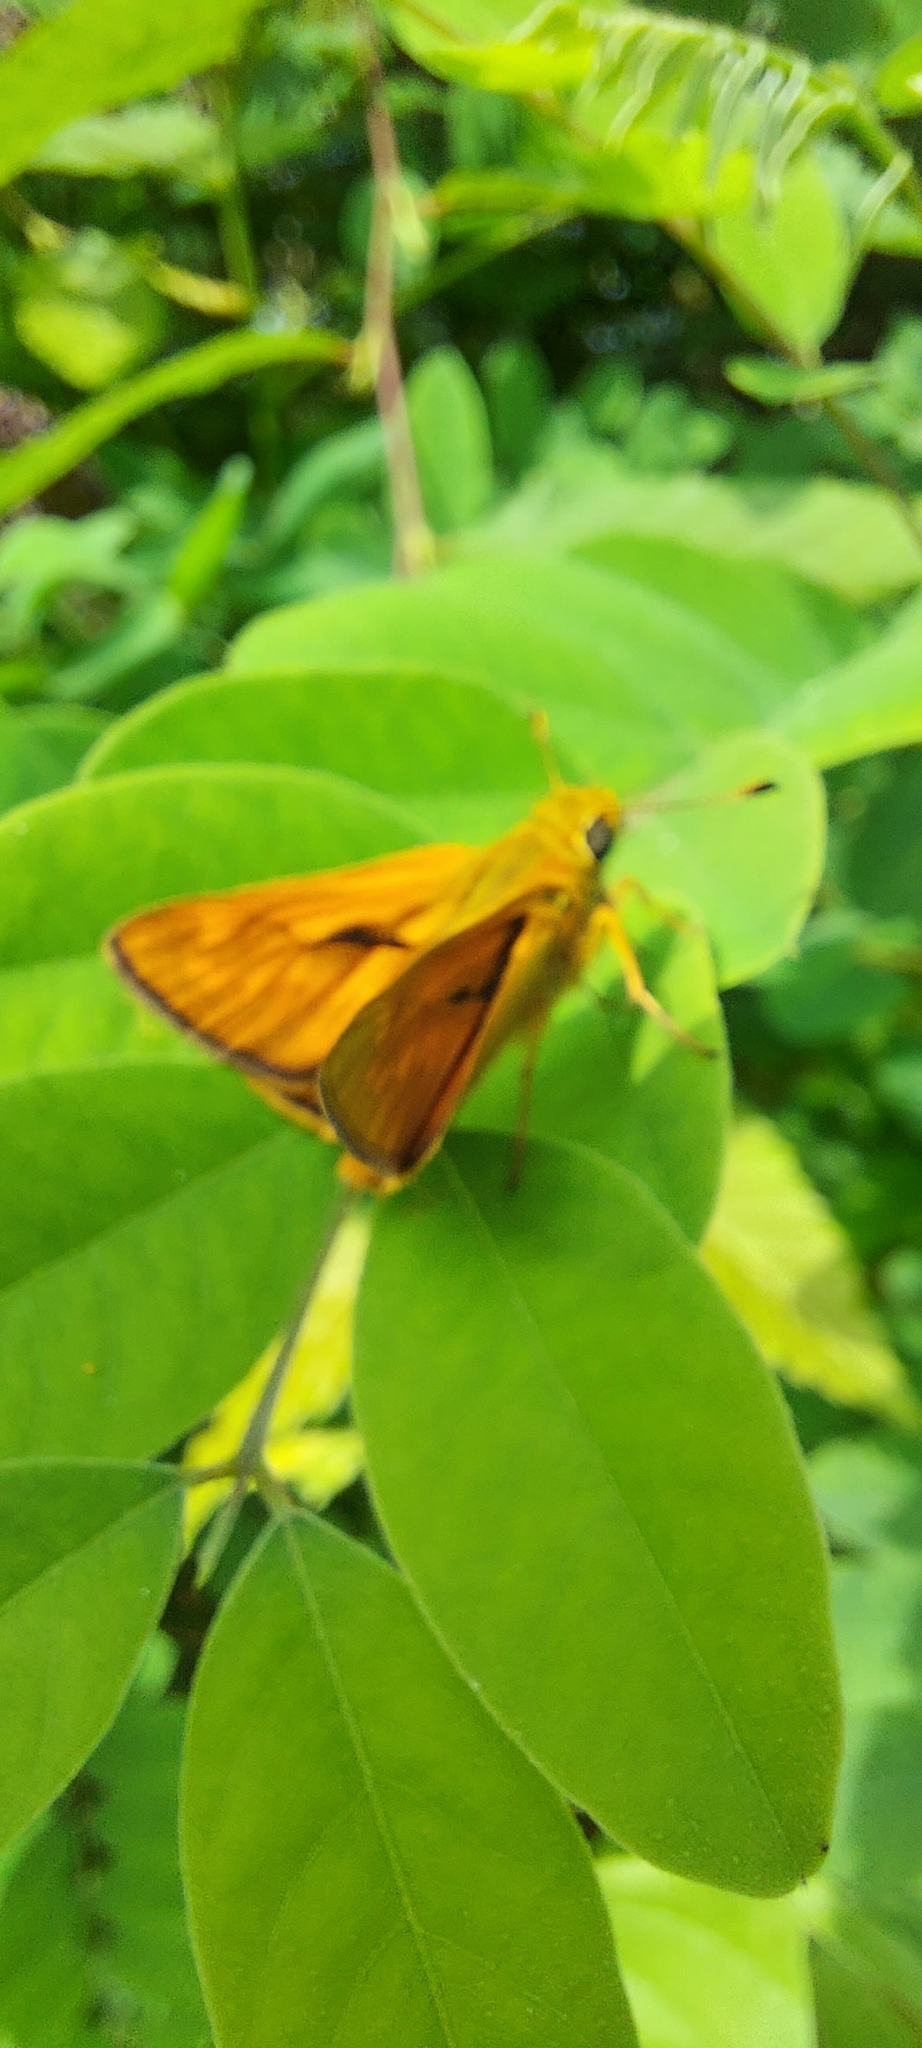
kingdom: Animalia
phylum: Arthropoda
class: Insecta
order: Lepidoptera
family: Hesperiidae
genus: Ochlodes
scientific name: Ochlodes venata
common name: Large skipper
